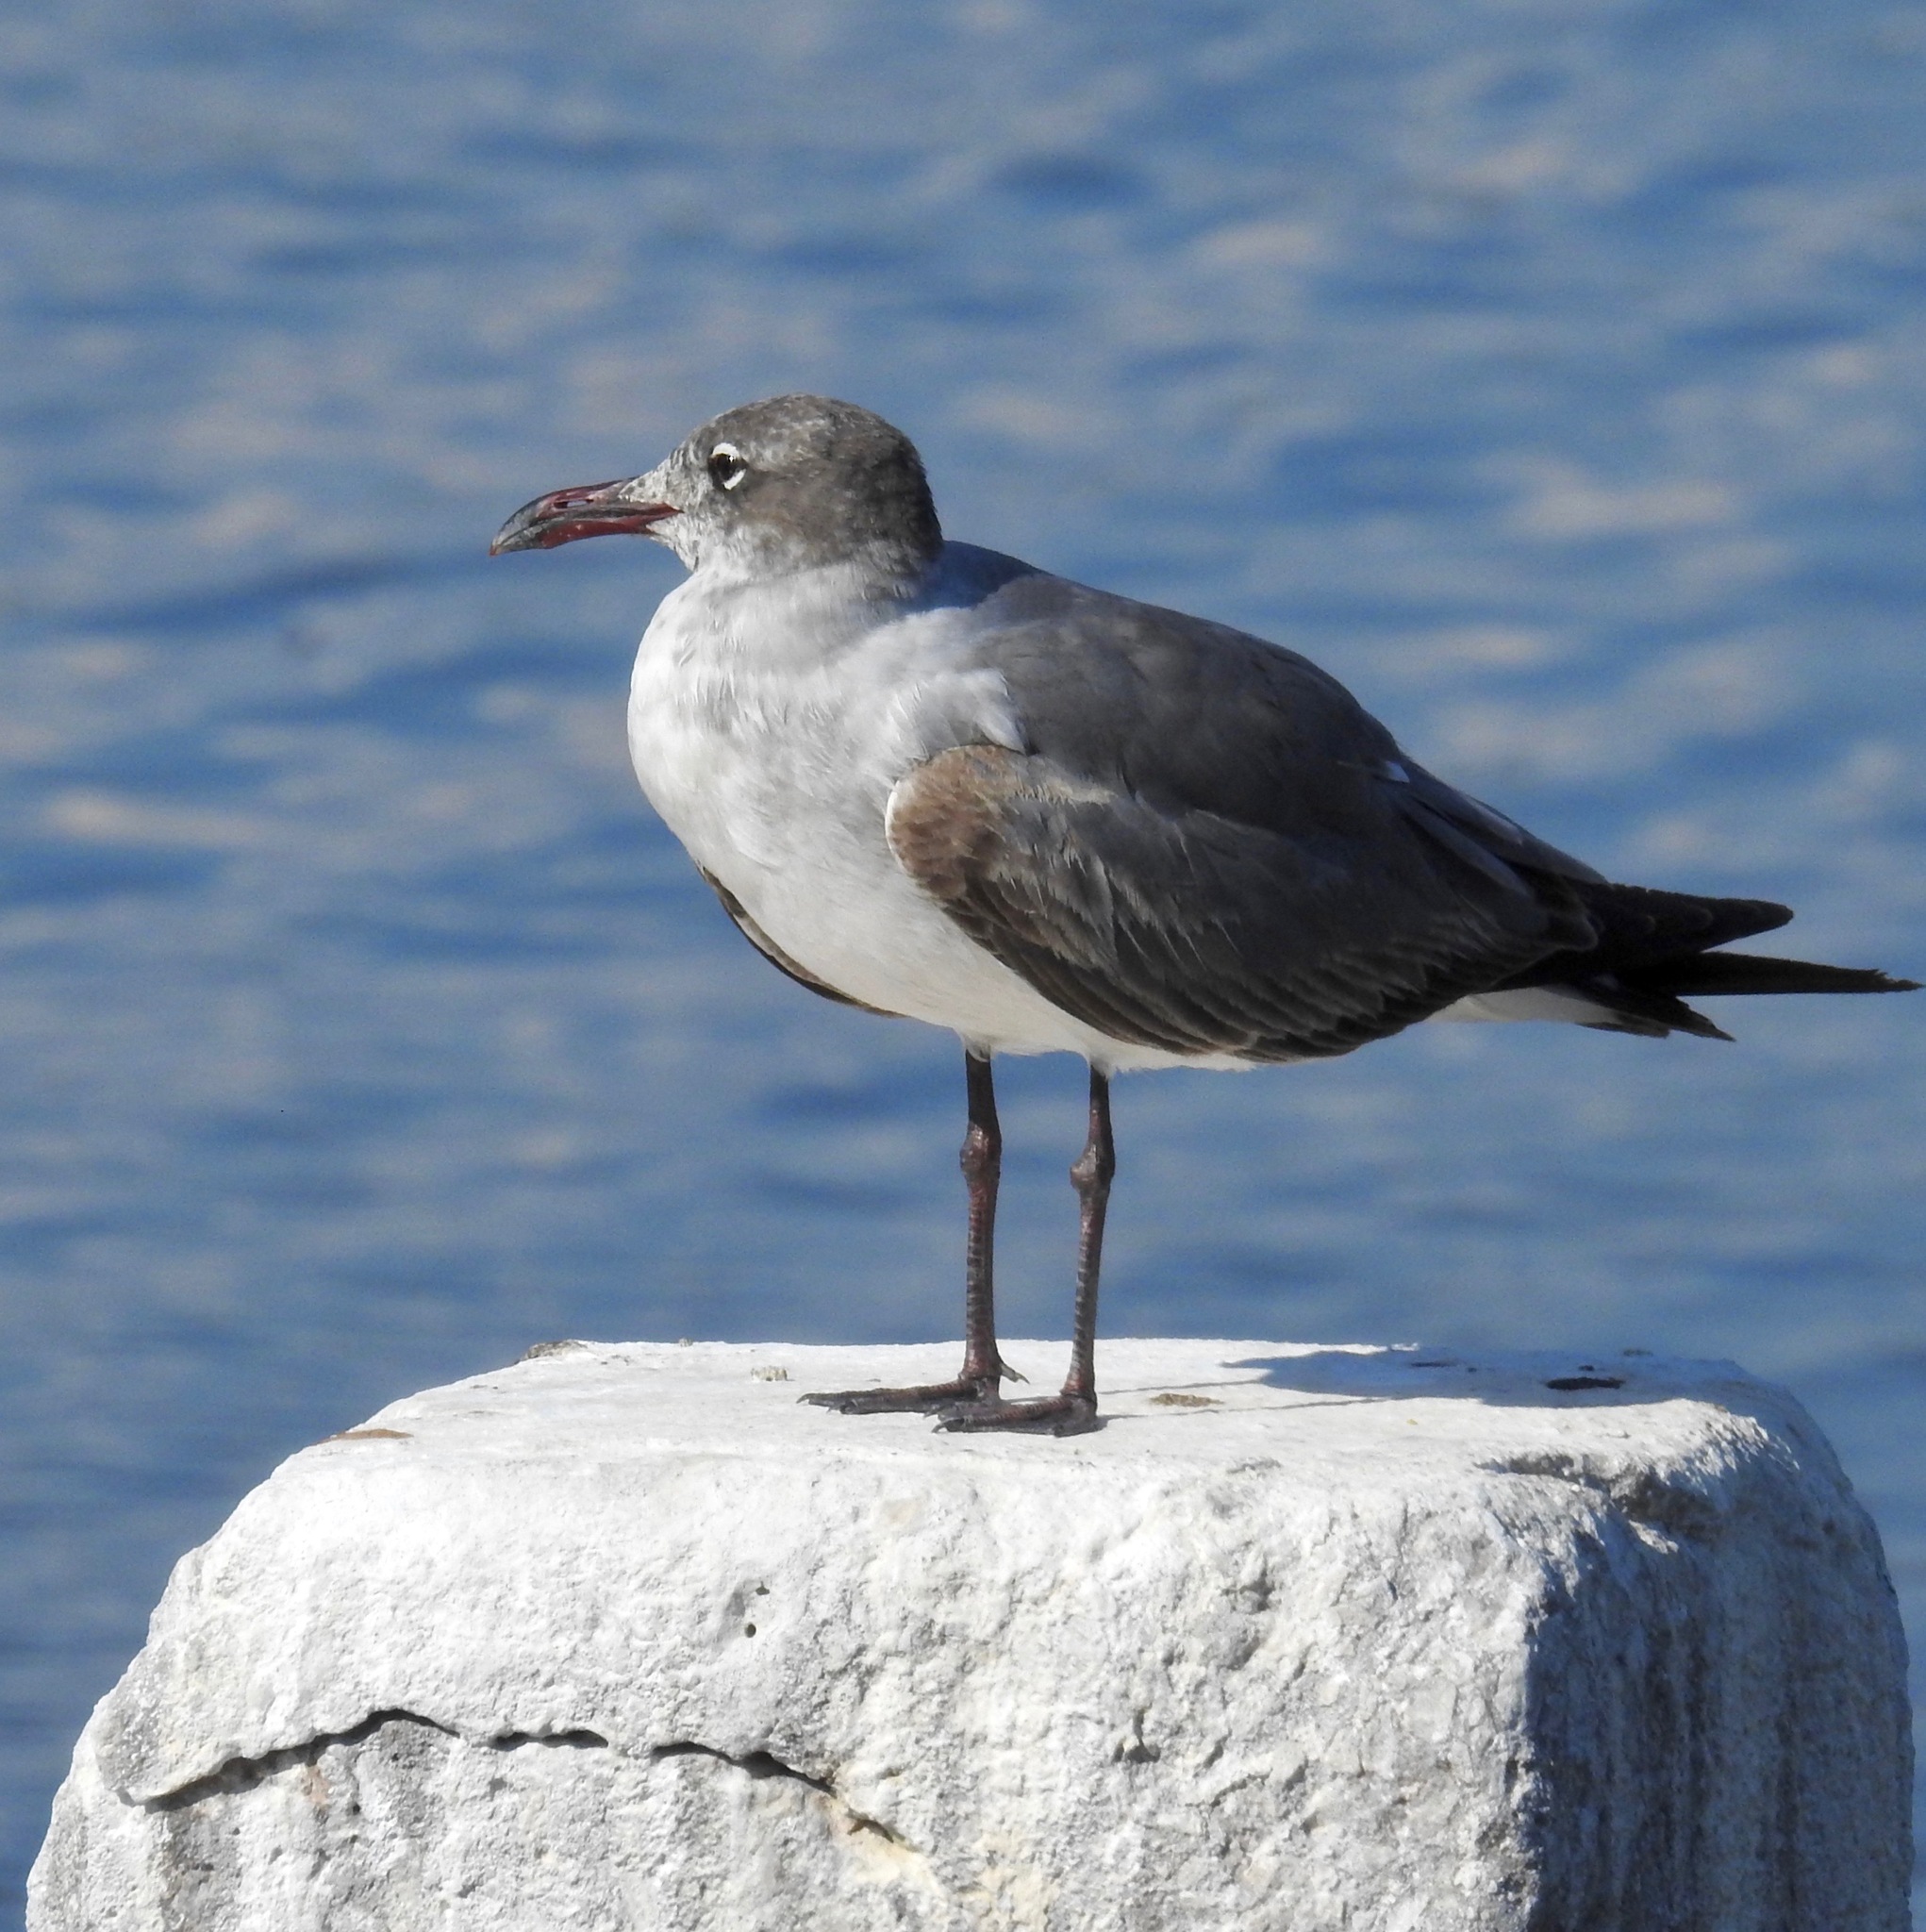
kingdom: Animalia
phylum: Chordata
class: Aves
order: Charadriiformes
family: Laridae
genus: Leucophaeus
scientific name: Leucophaeus atricilla
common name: Laughing gull
